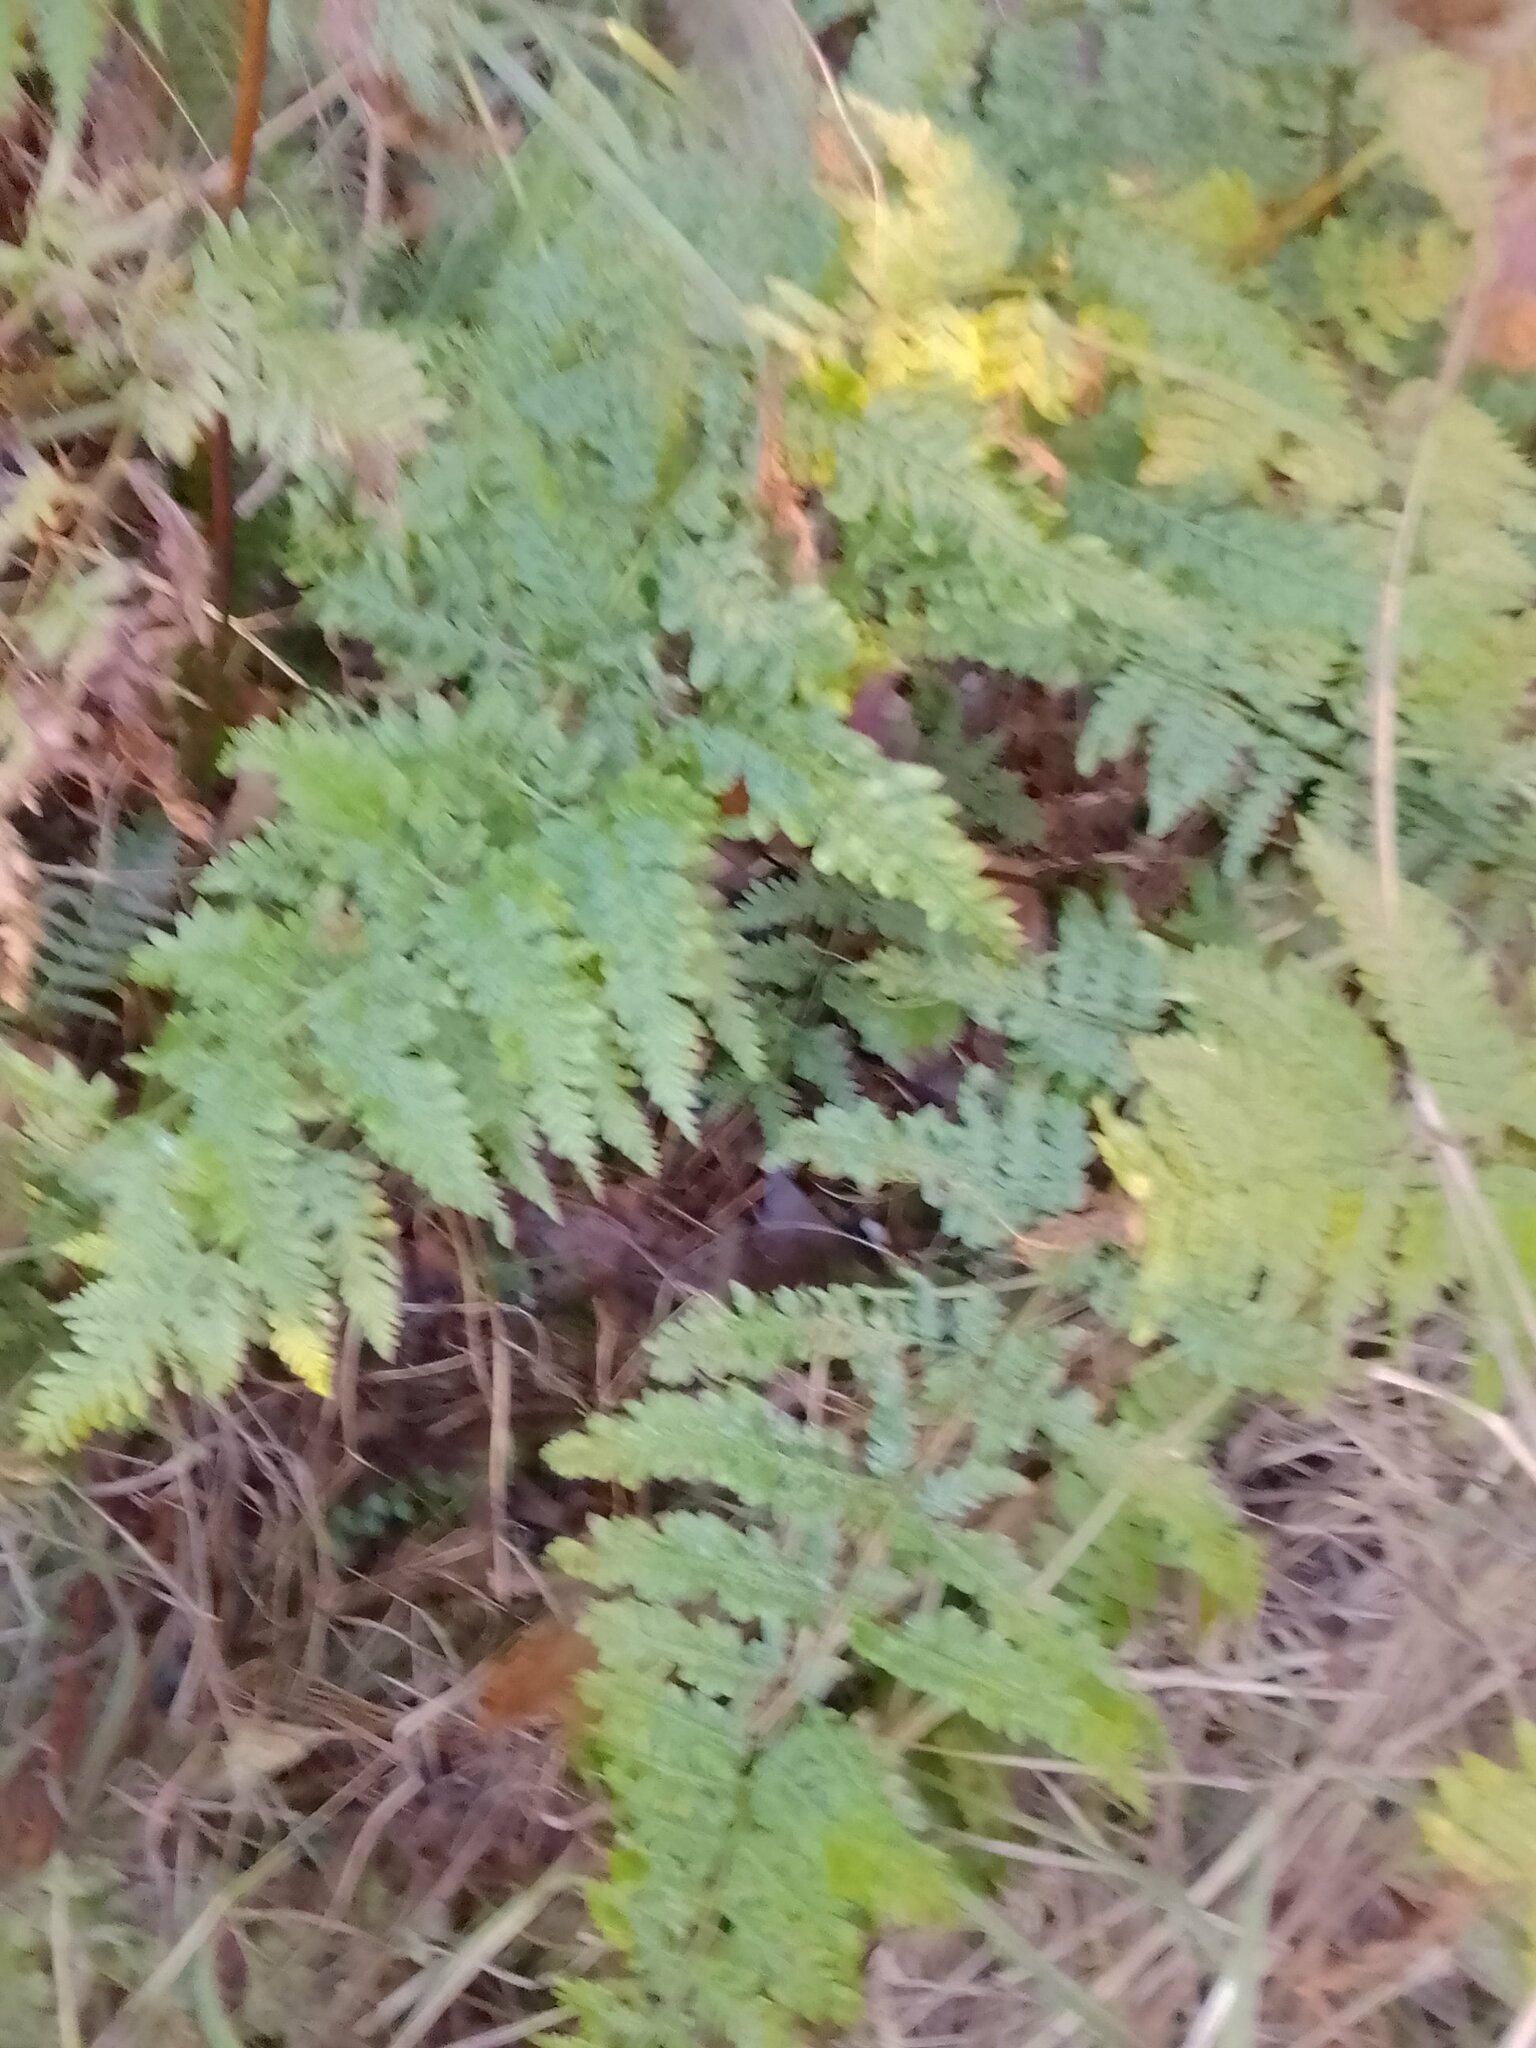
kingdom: Plantae
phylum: Tracheophyta
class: Polypodiopsida
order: Polypodiales
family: Pteridaceae
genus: Pteris
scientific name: Pteris tremula
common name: Australian brake
